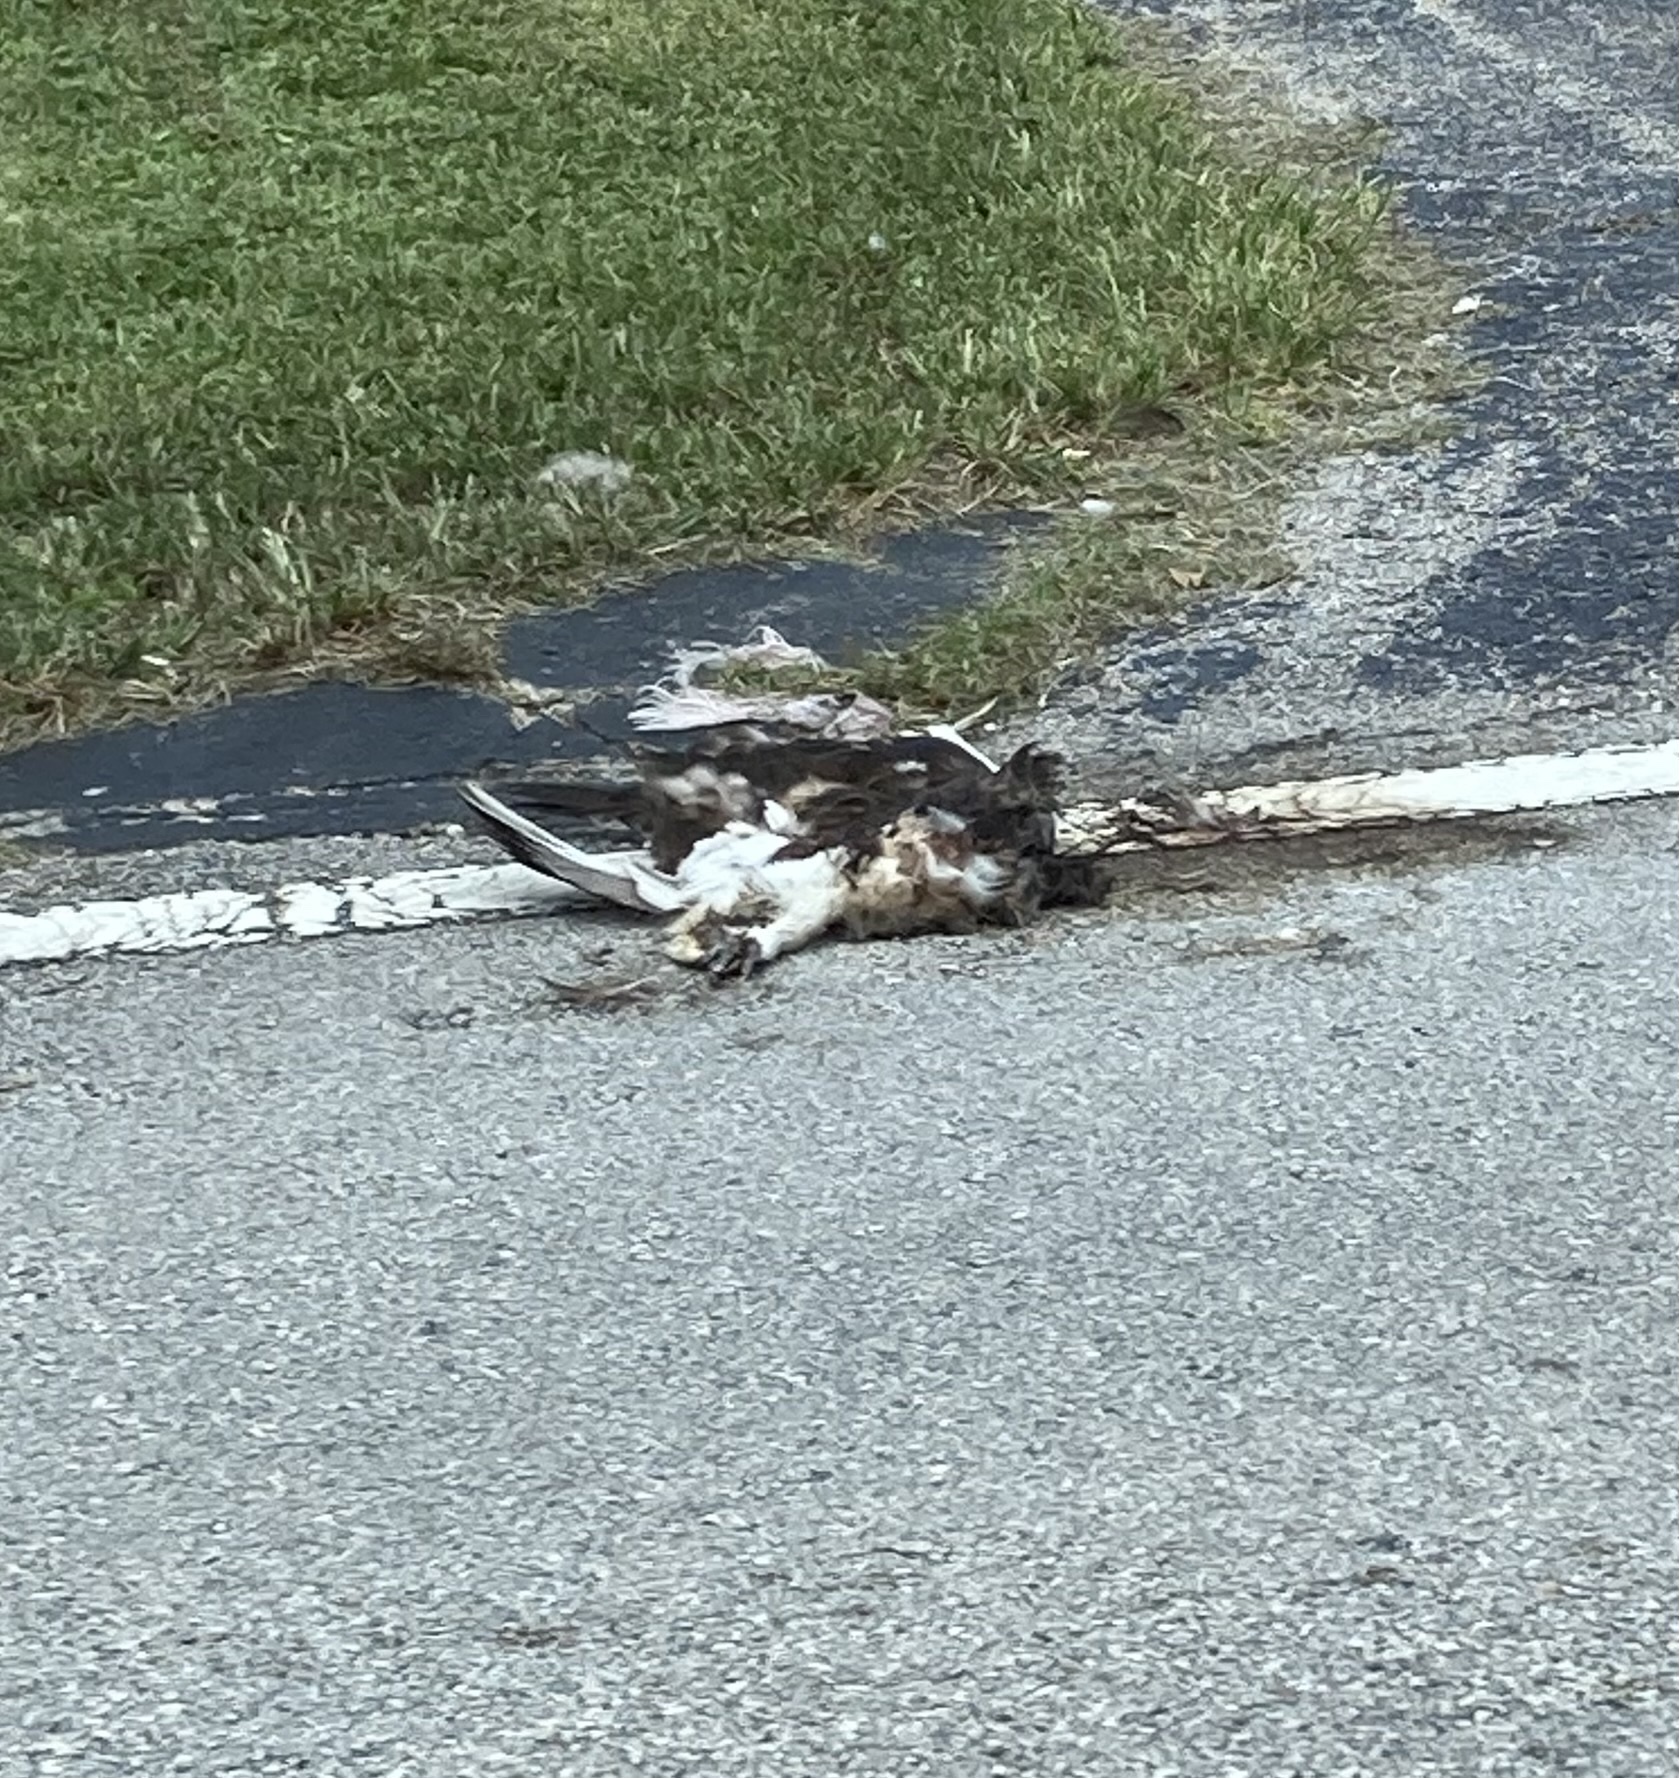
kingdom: Animalia
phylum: Chordata
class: Aves
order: Accipitriformes
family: Pandionidae
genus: Pandion
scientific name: Pandion haliaetus
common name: Osprey
